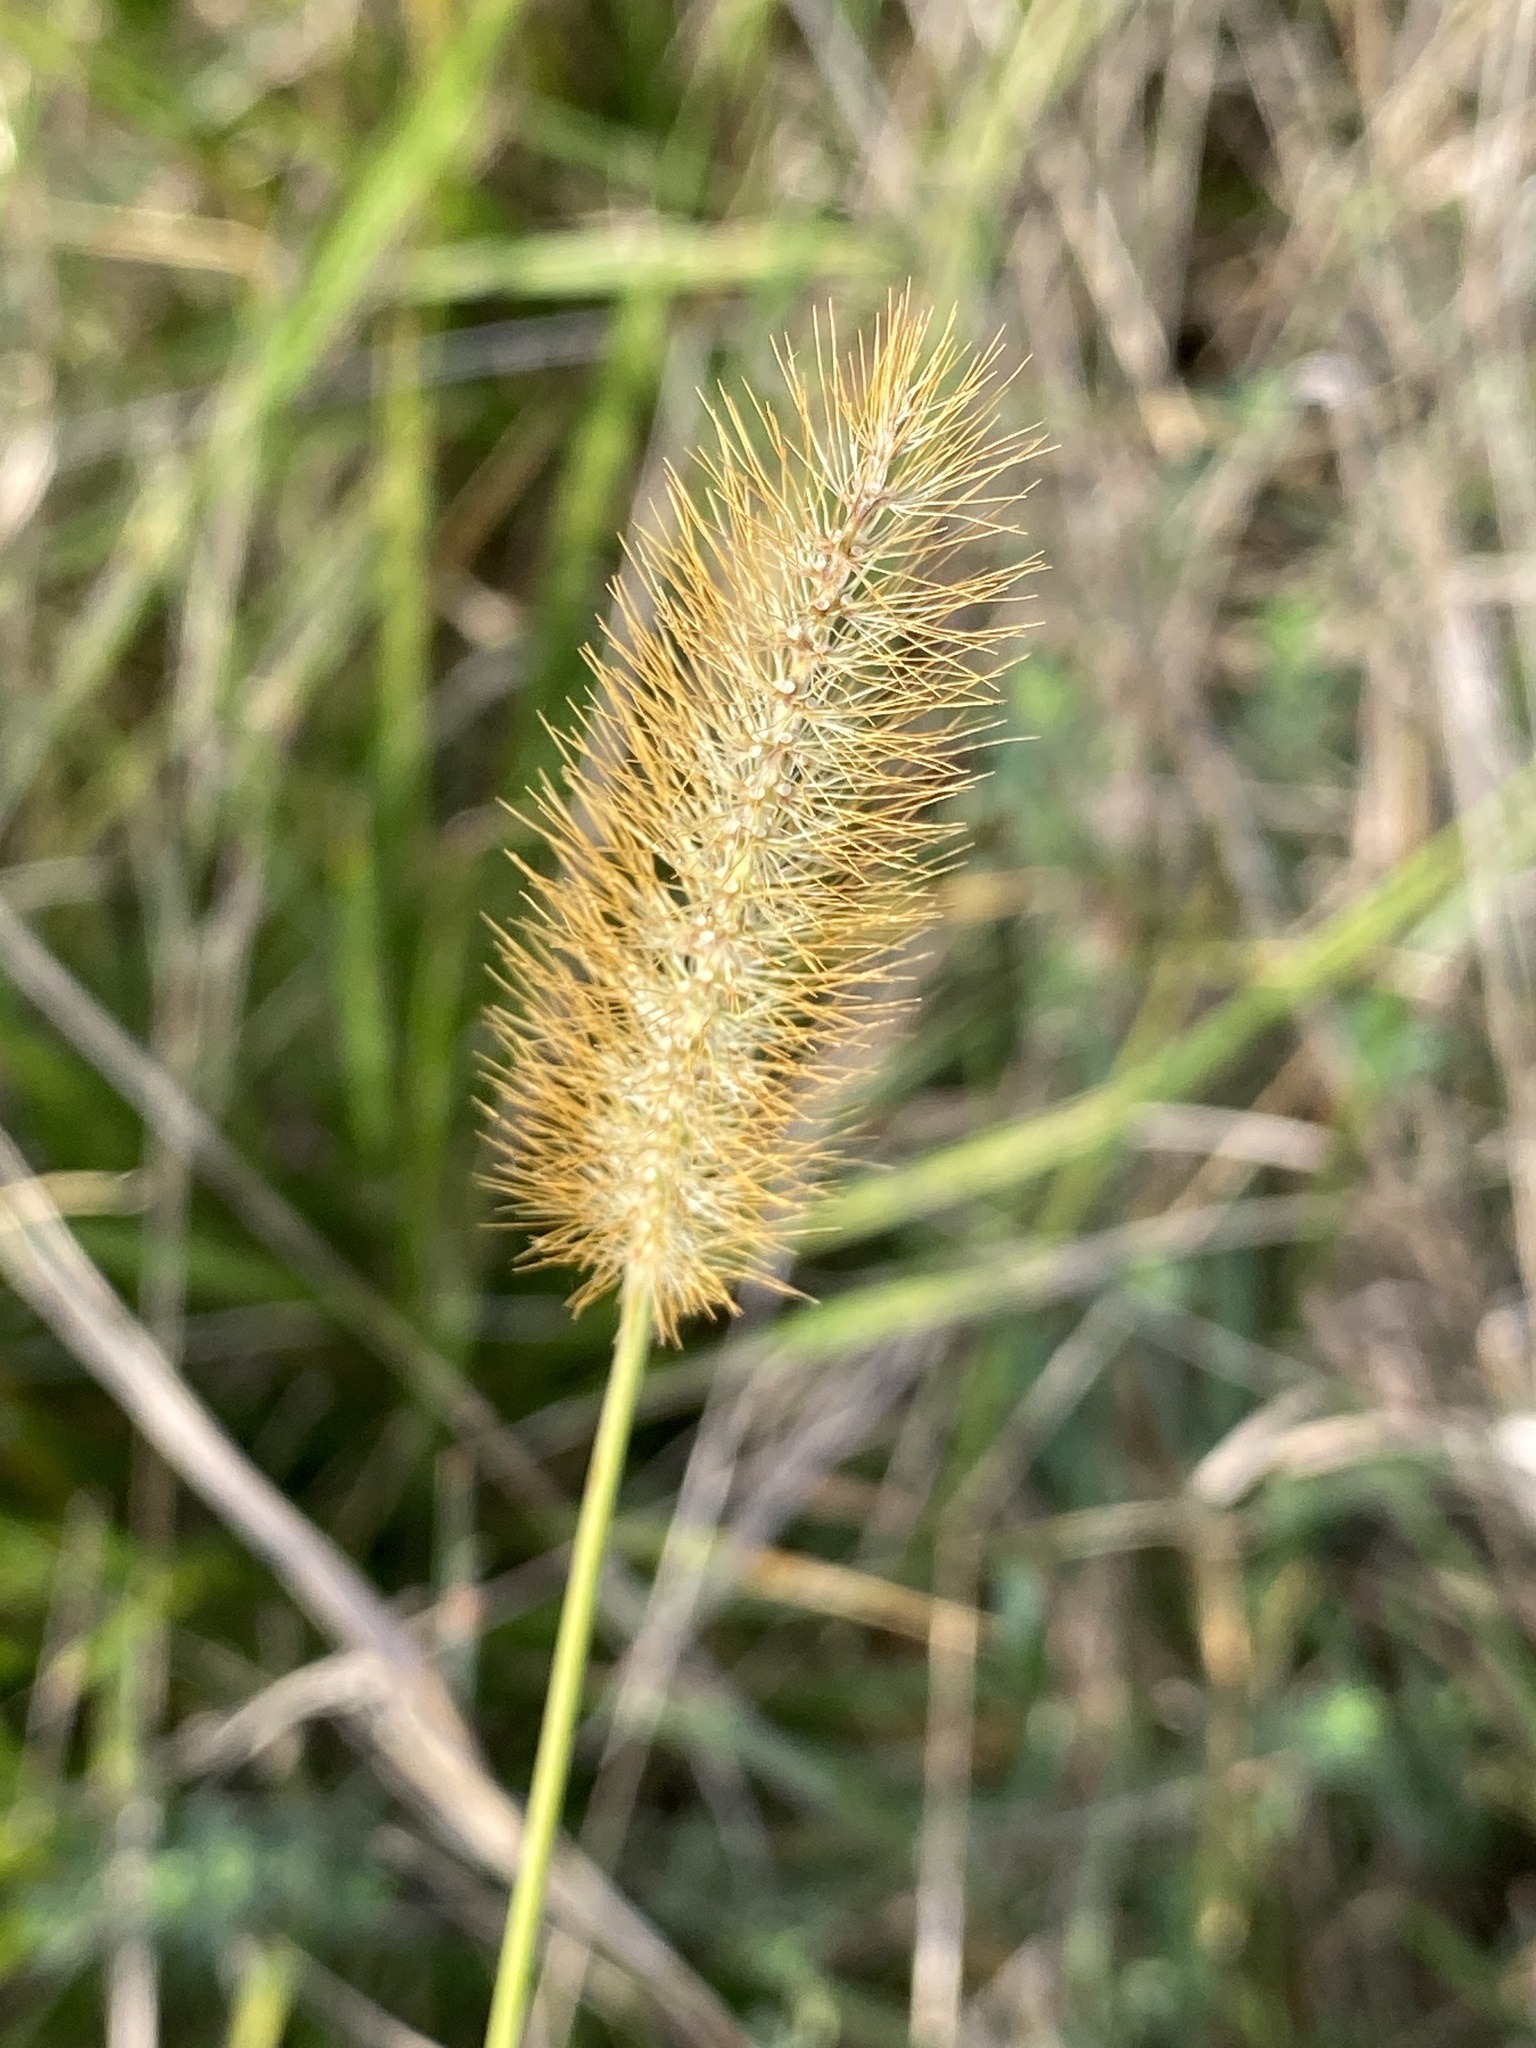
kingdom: Plantae
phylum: Tracheophyta
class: Liliopsida
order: Poales
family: Poaceae
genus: Setaria
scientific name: Setaria pumila
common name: Yellow bristle-grass
